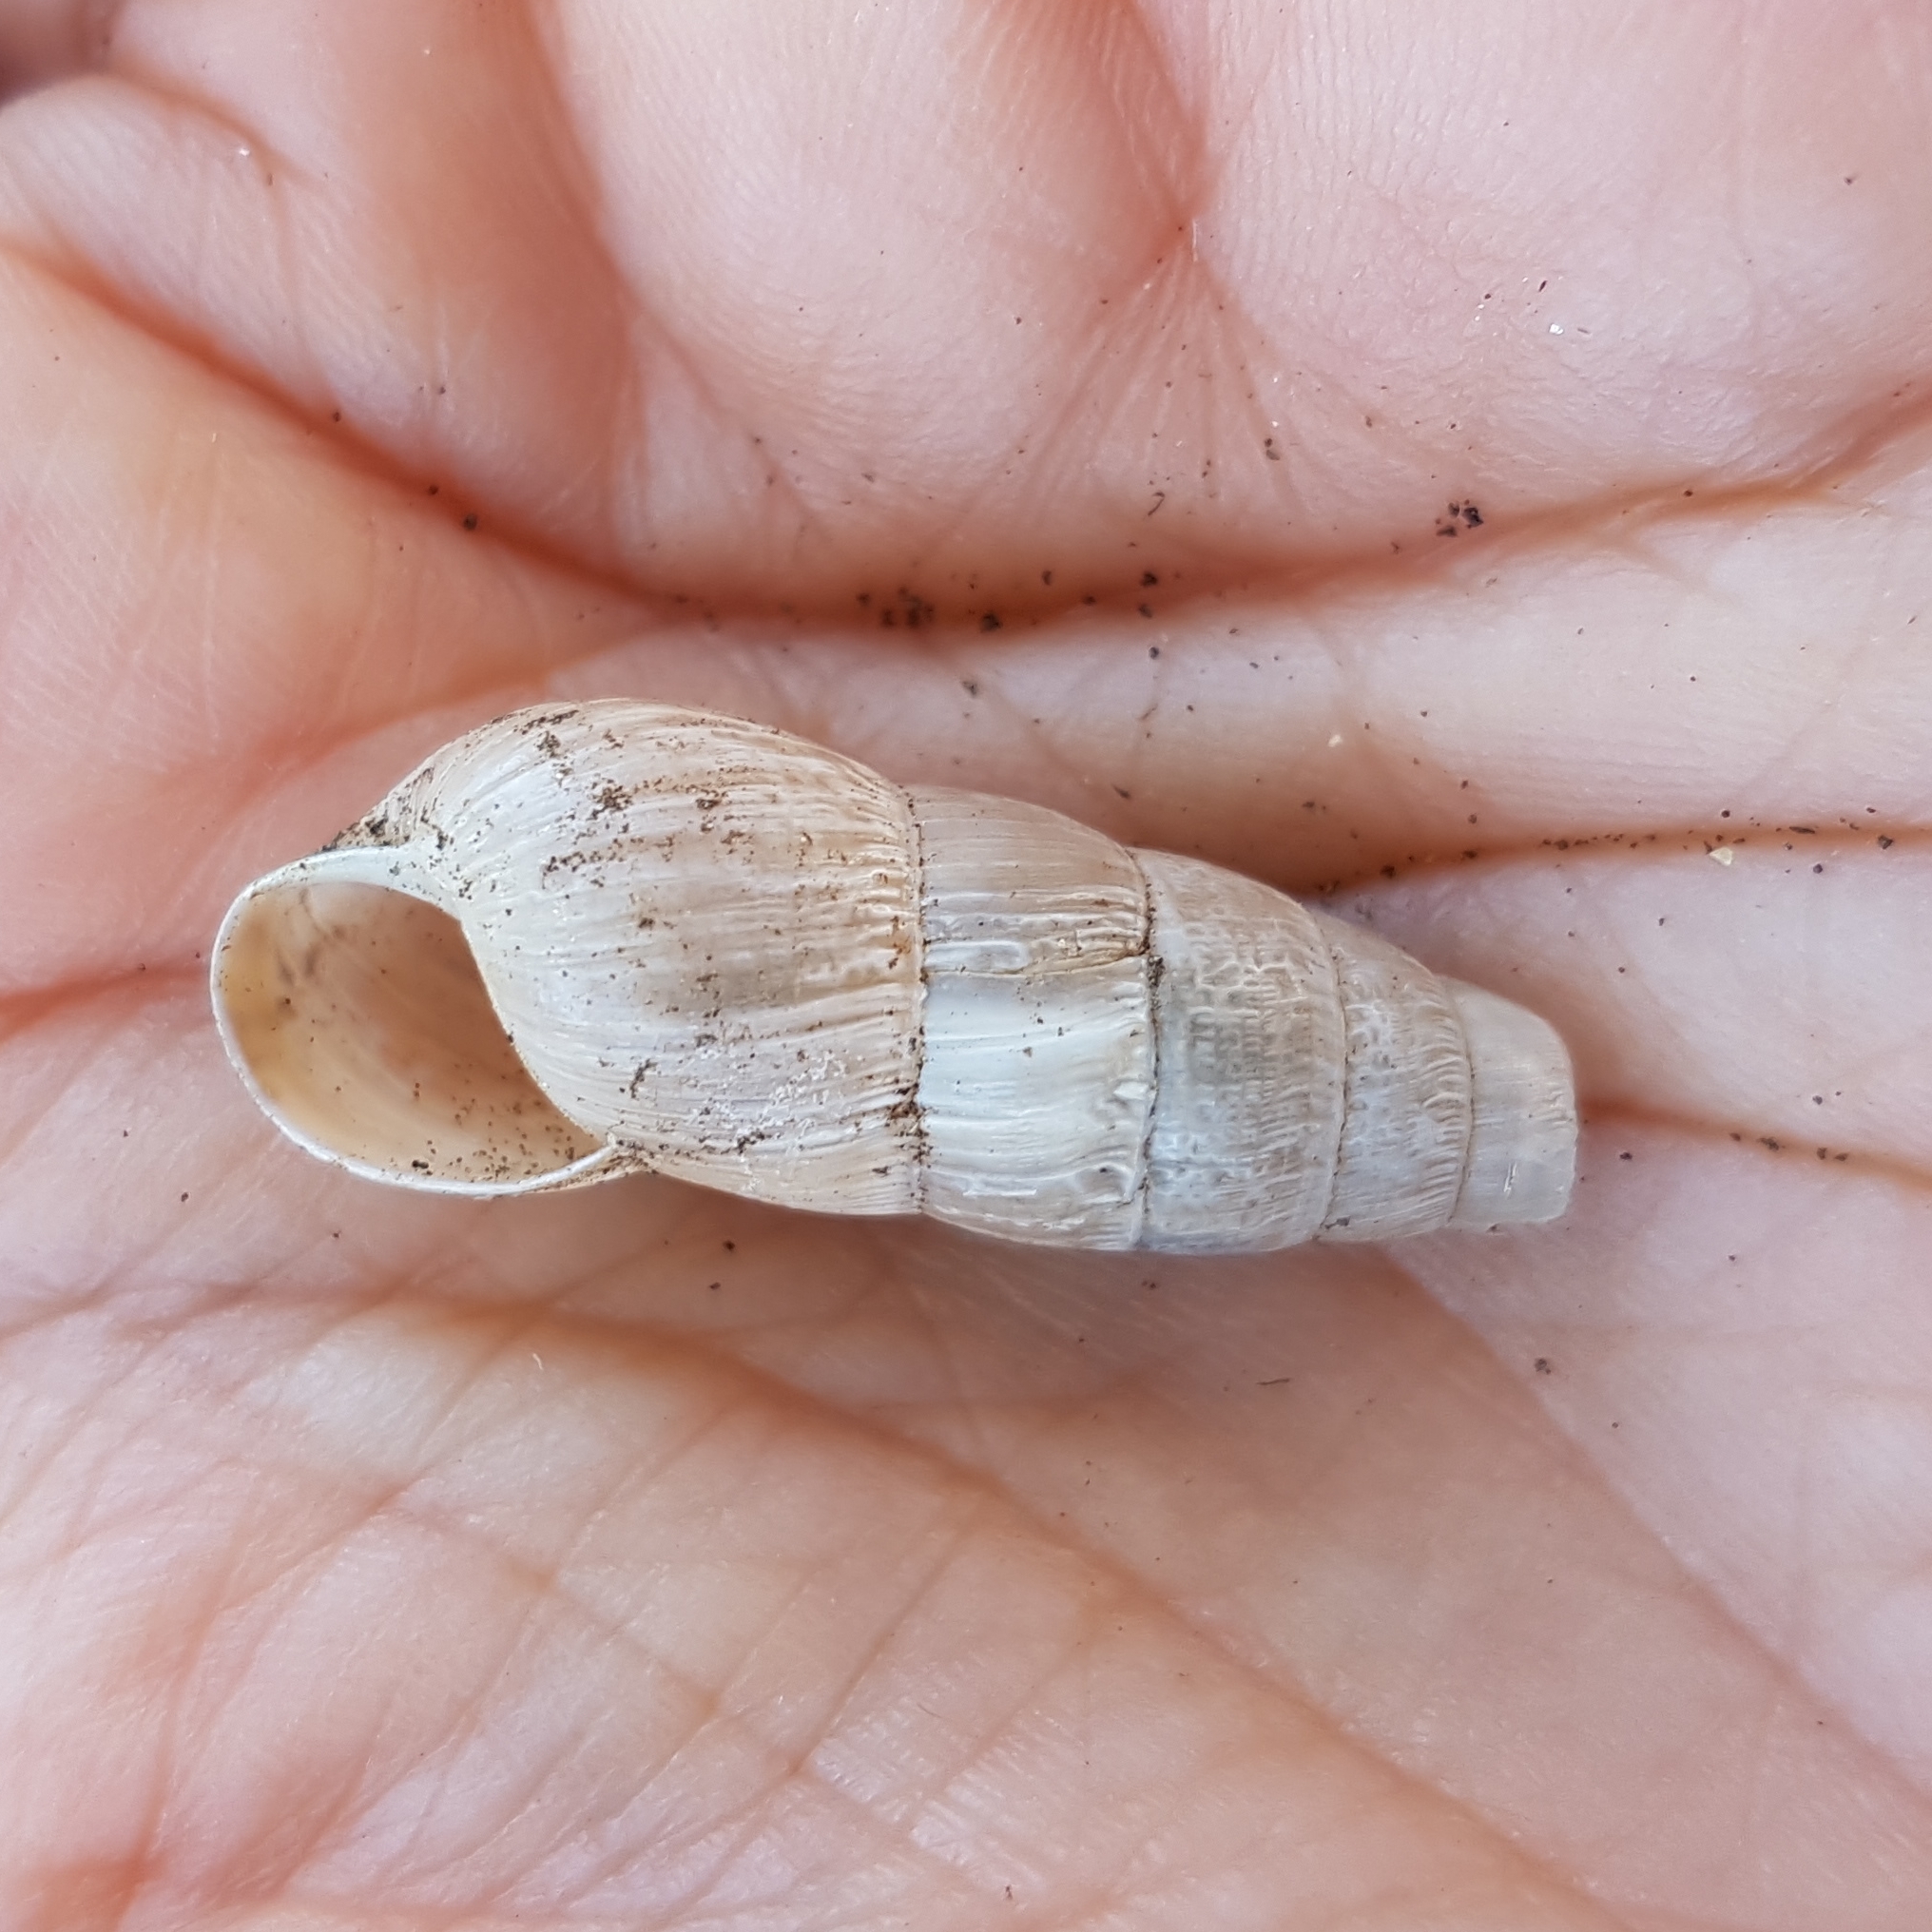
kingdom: Animalia
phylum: Mollusca
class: Gastropoda
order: Stylommatophora
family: Achatinidae
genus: Rumina
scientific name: Rumina decollata
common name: Decollate snail
